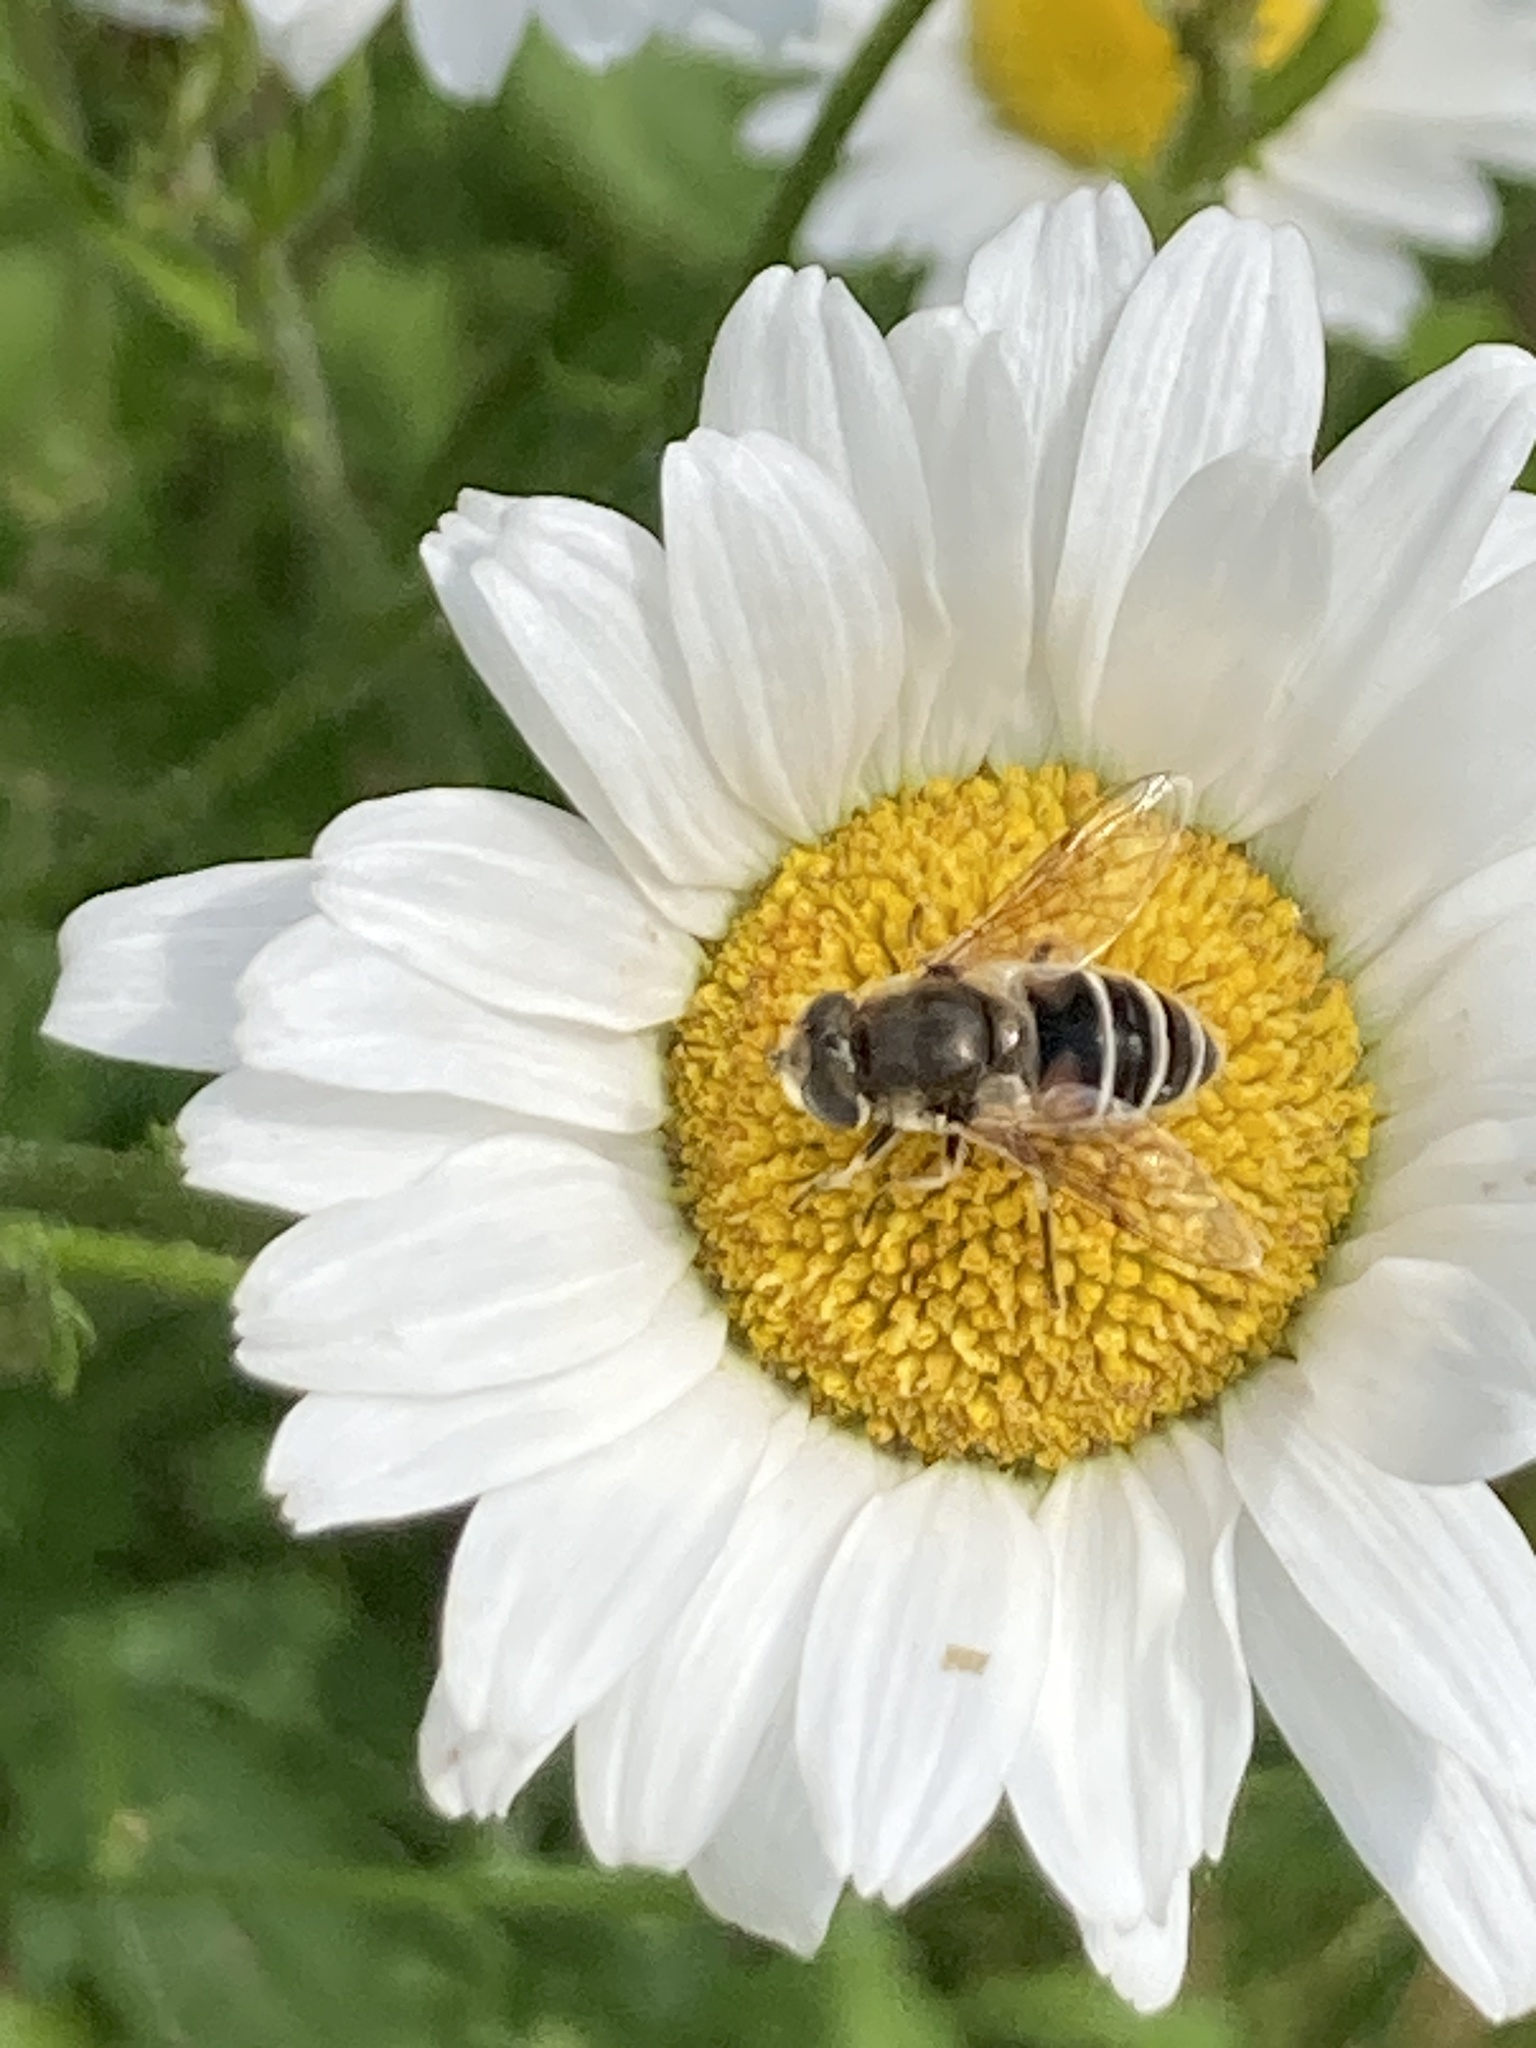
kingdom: Animalia
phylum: Arthropoda
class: Insecta
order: Diptera
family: Syrphidae
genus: Eoseristalis
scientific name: Eoseristalis
